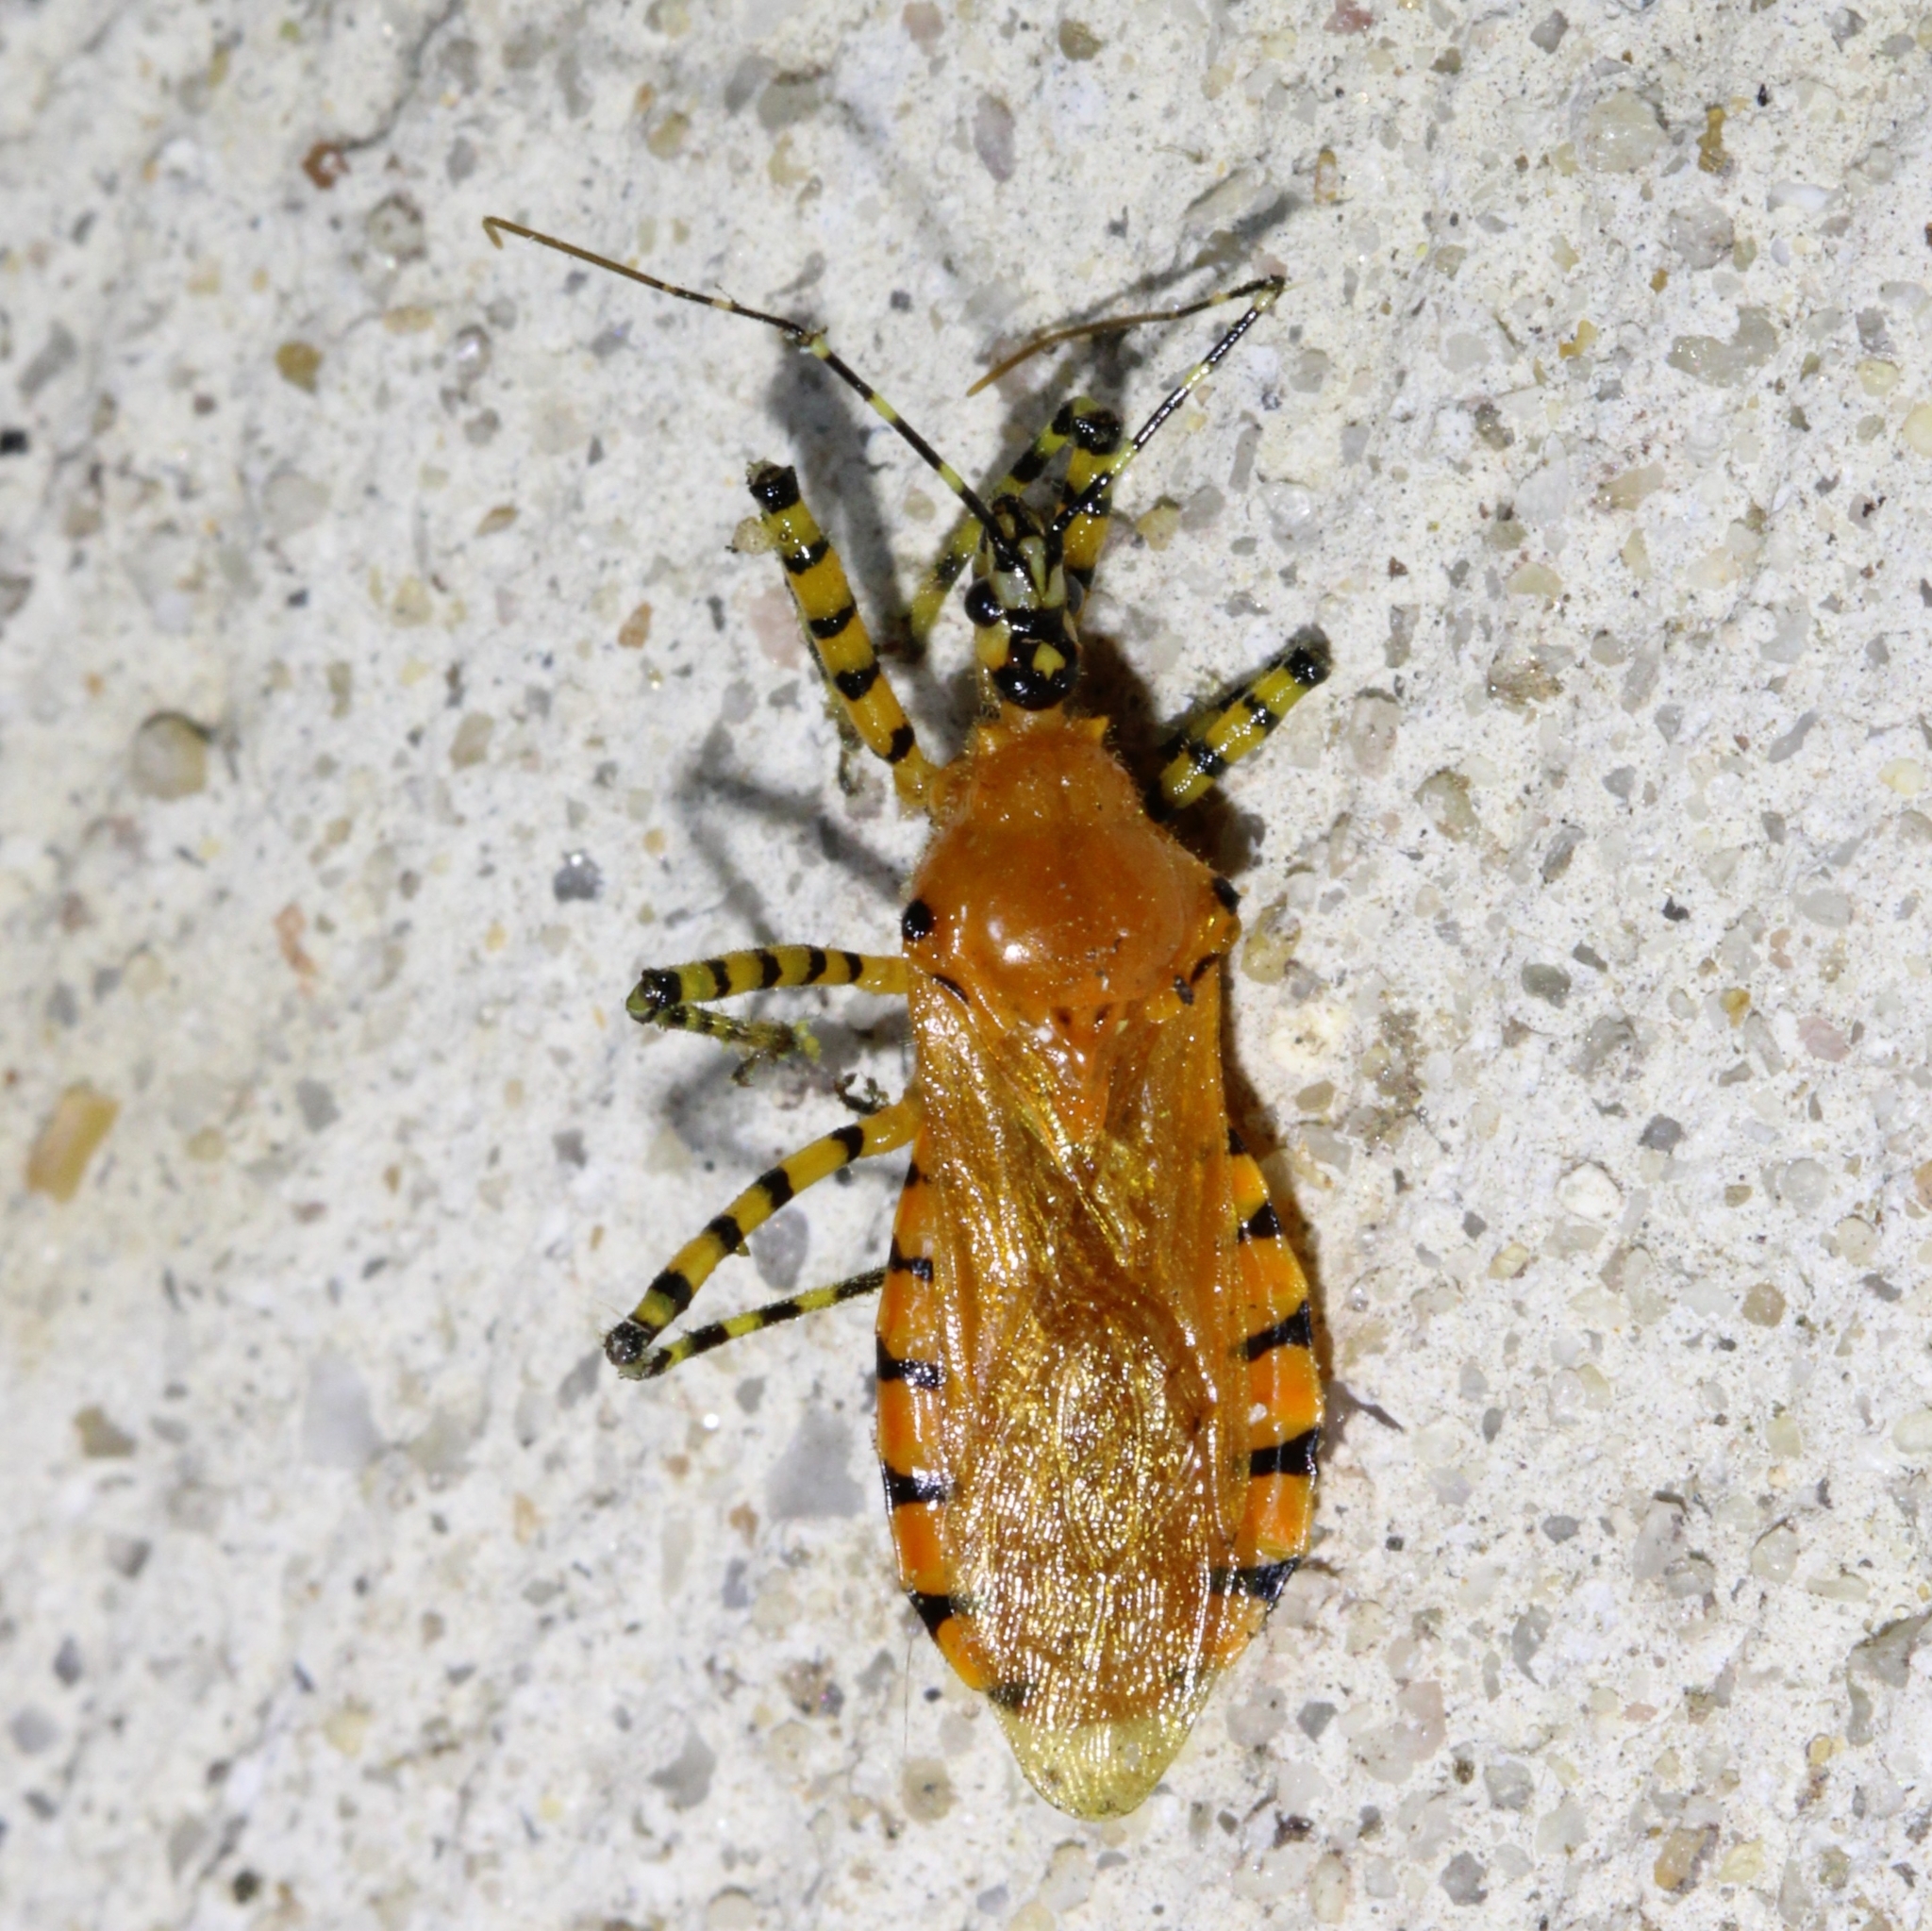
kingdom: Animalia
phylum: Arthropoda
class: Insecta
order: Hemiptera
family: Reduviidae
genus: Pselliopus
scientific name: Pselliopus barberi
